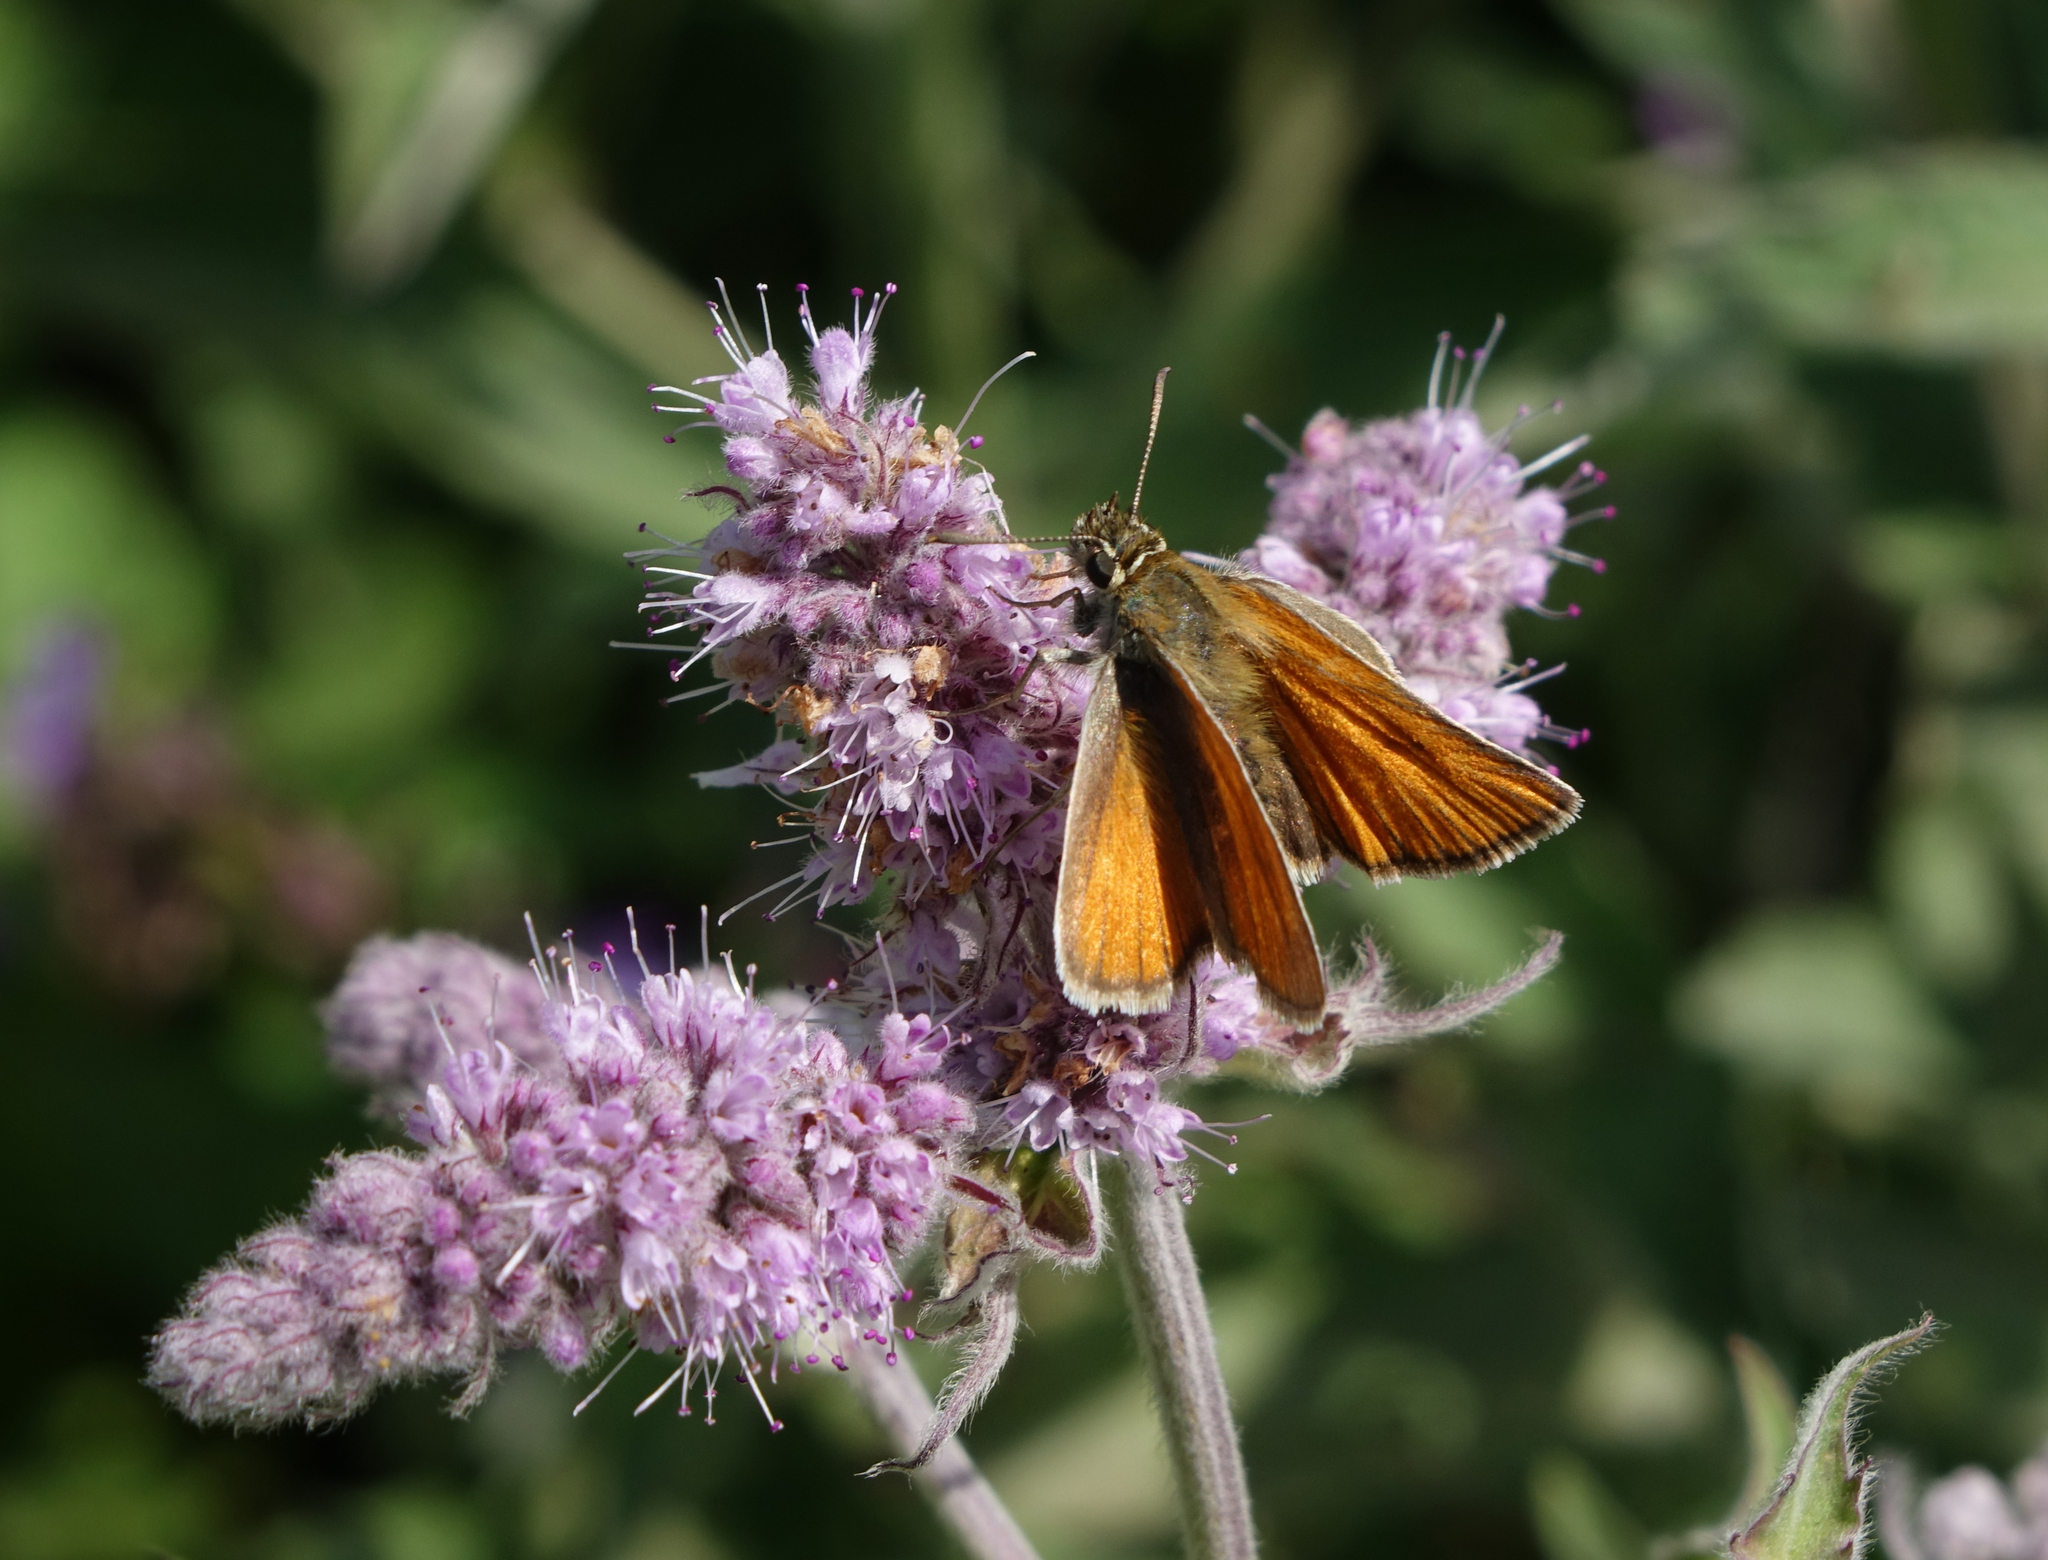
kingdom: Animalia
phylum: Arthropoda
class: Insecta
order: Lepidoptera
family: Hesperiidae
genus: Thymelicus
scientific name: Thymelicus lineola
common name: Essex skipper
